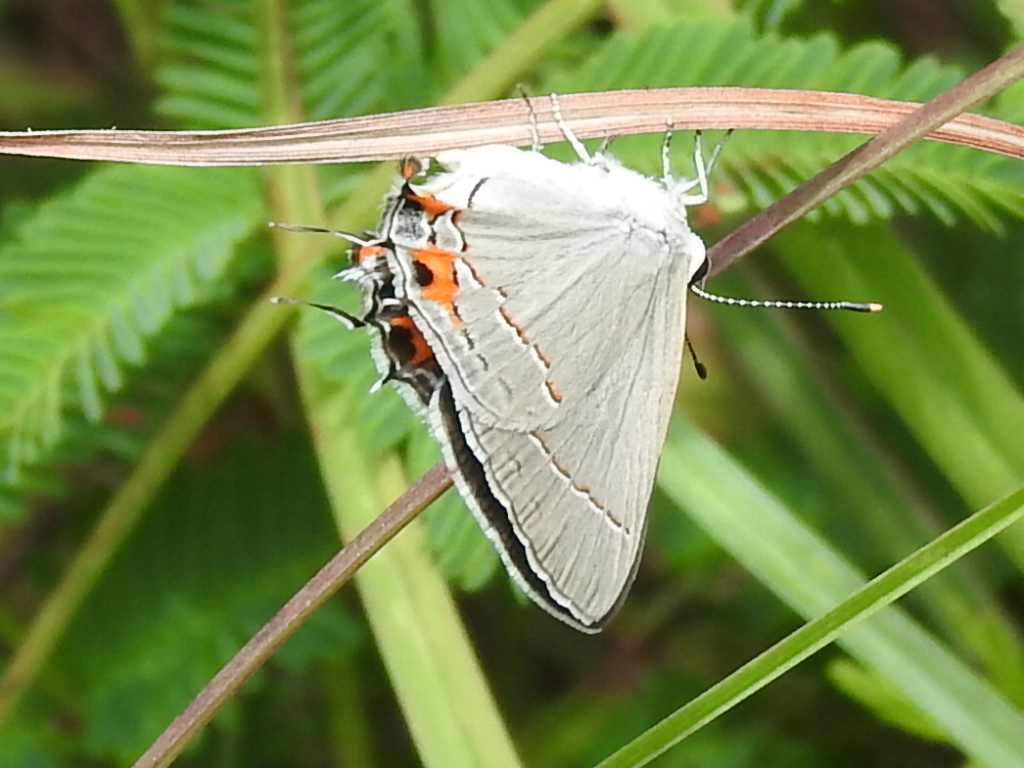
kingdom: Animalia
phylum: Arthropoda
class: Insecta
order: Lepidoptera
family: Lycaenidae
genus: Strymon
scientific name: Strymon melinus
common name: Gray hairstreak
